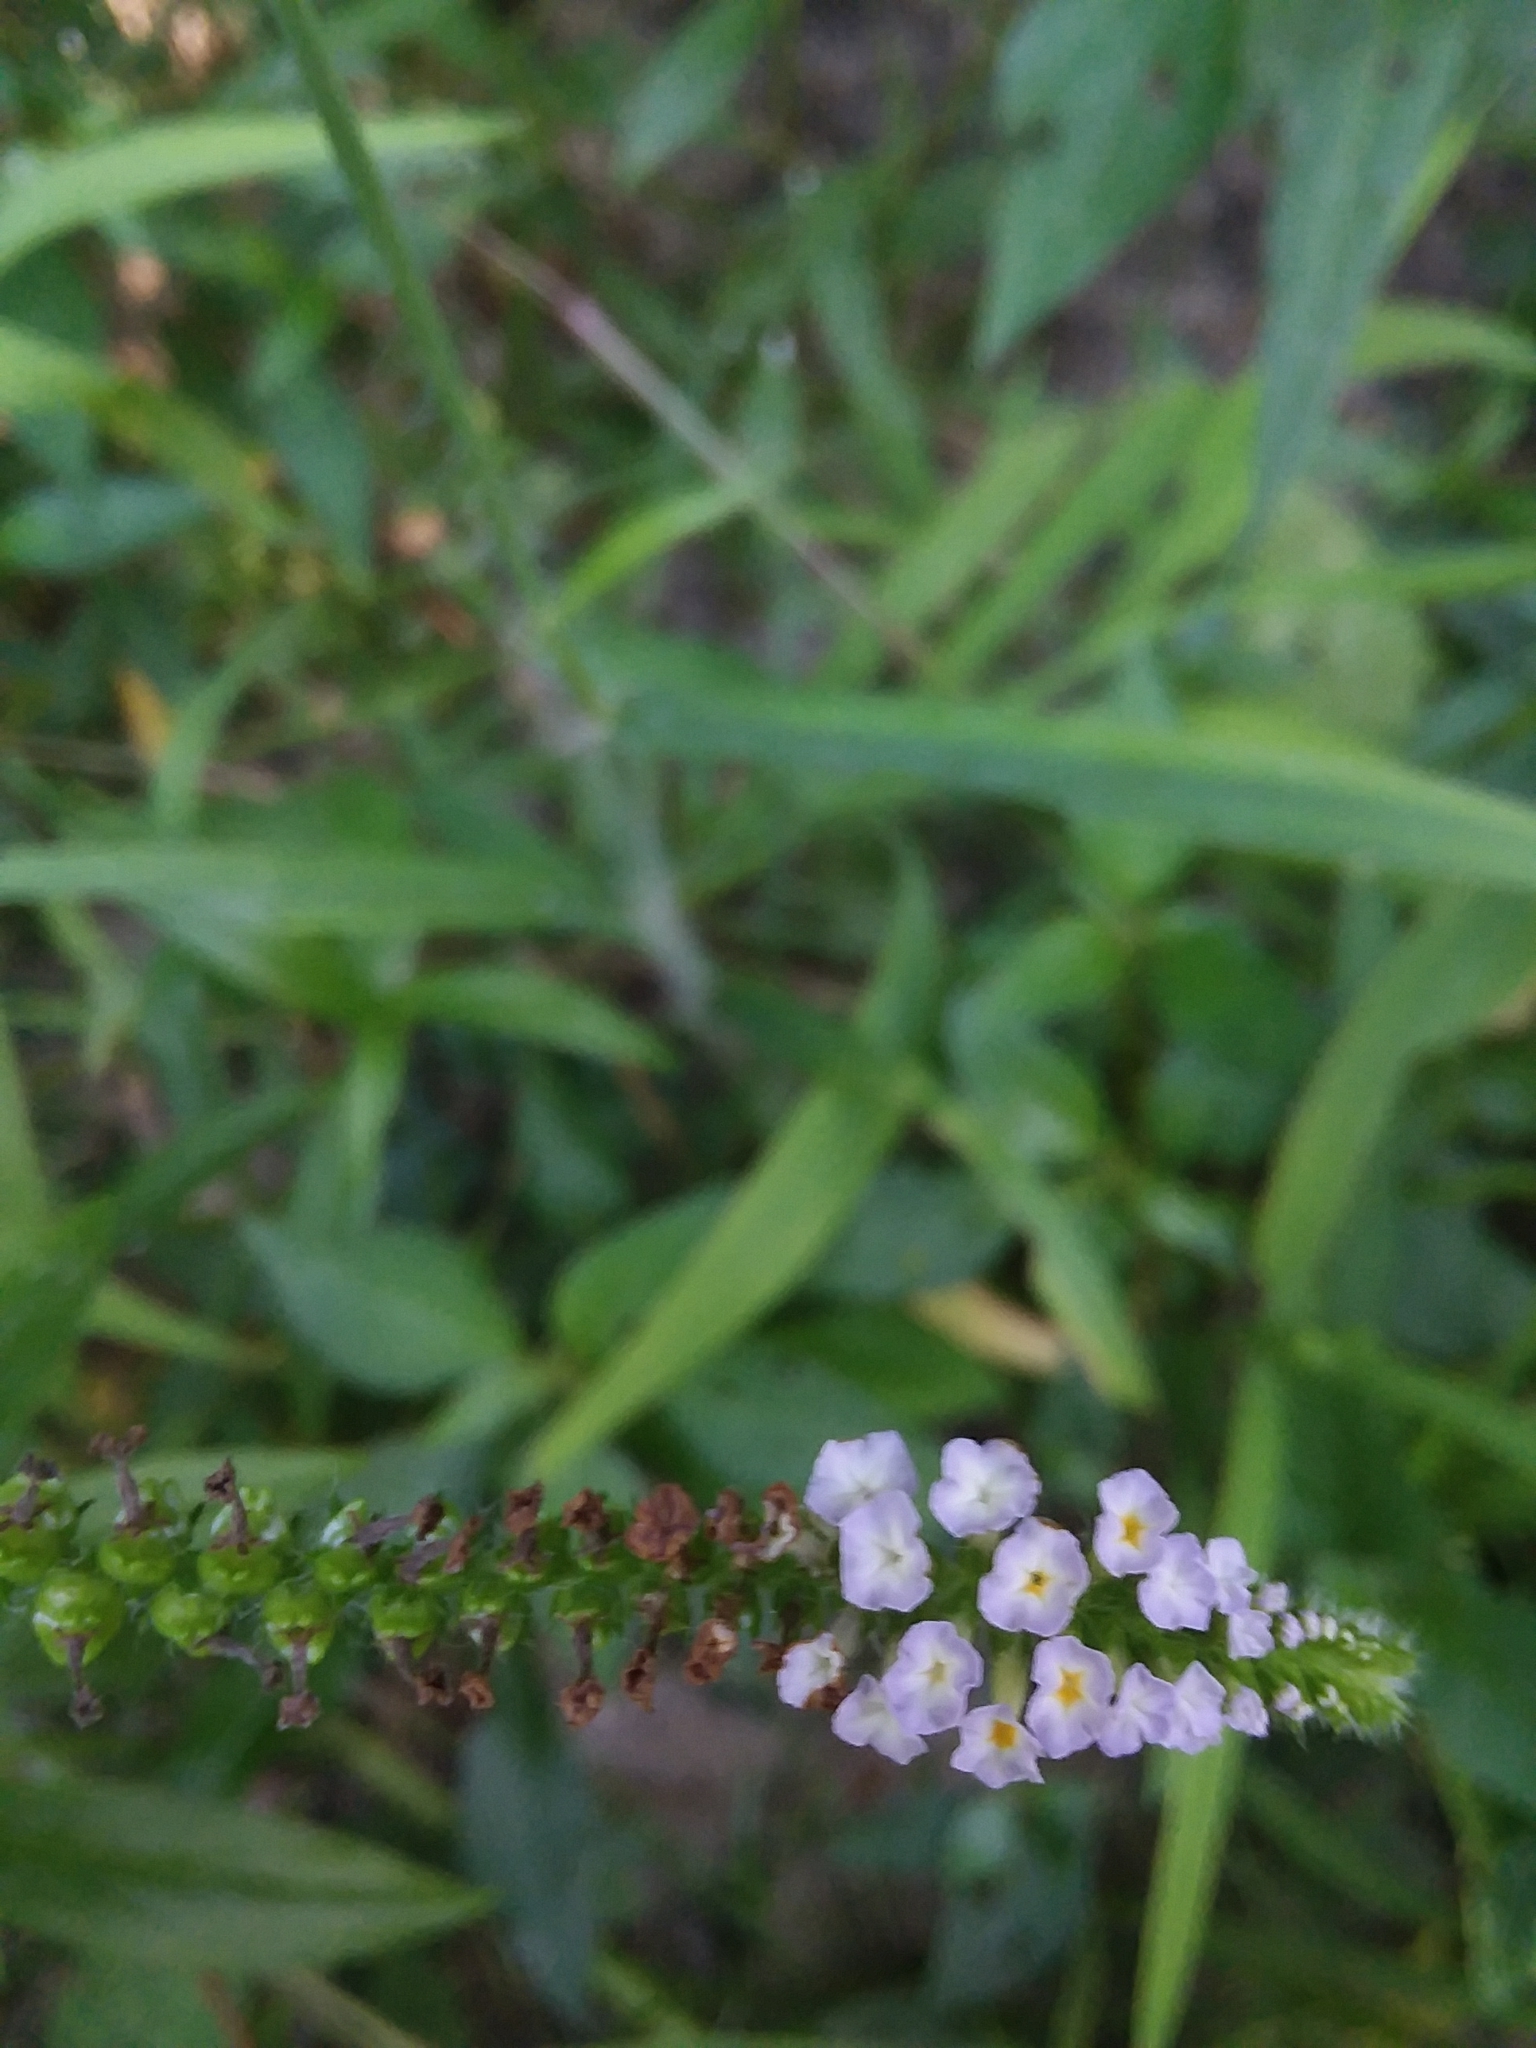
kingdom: Plantae
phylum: Tracheophyta
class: Magnoliopsida
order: Boraginales
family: Heliotropiaceae
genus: Heliotropium
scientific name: Heliotropium indicum
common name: Indian heliotrope
